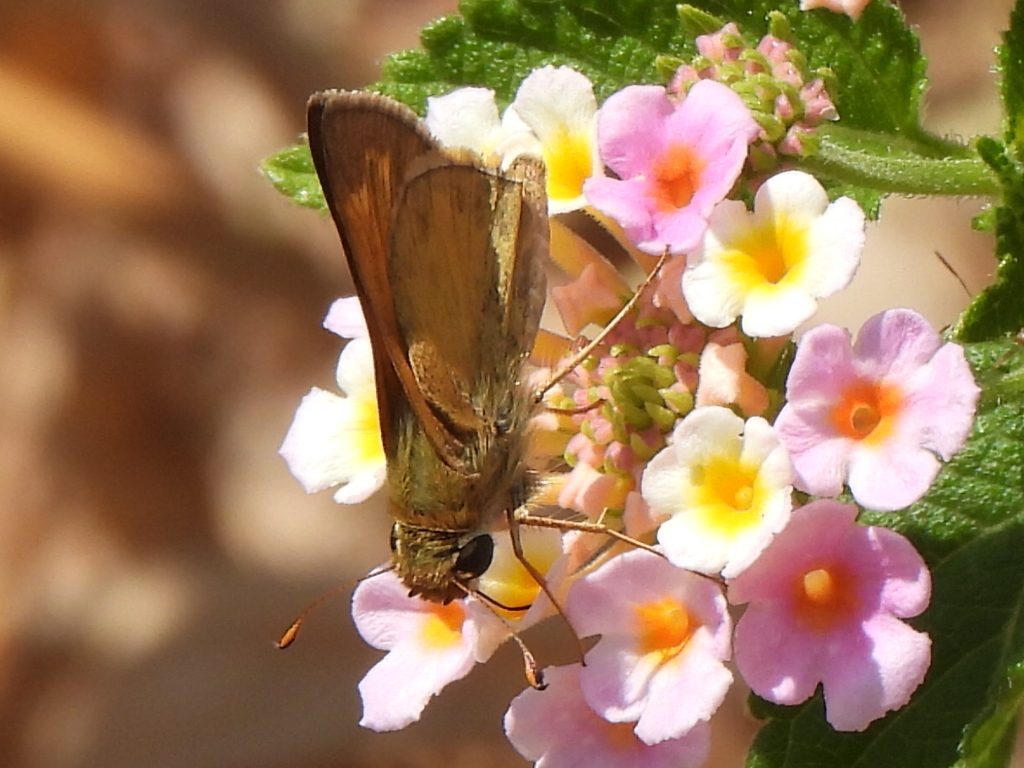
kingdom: Animalia
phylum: Arthropoda
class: Insecta
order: Lepidoptera
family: Hesperiidae
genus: Atalopedes
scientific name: Atalopedes
